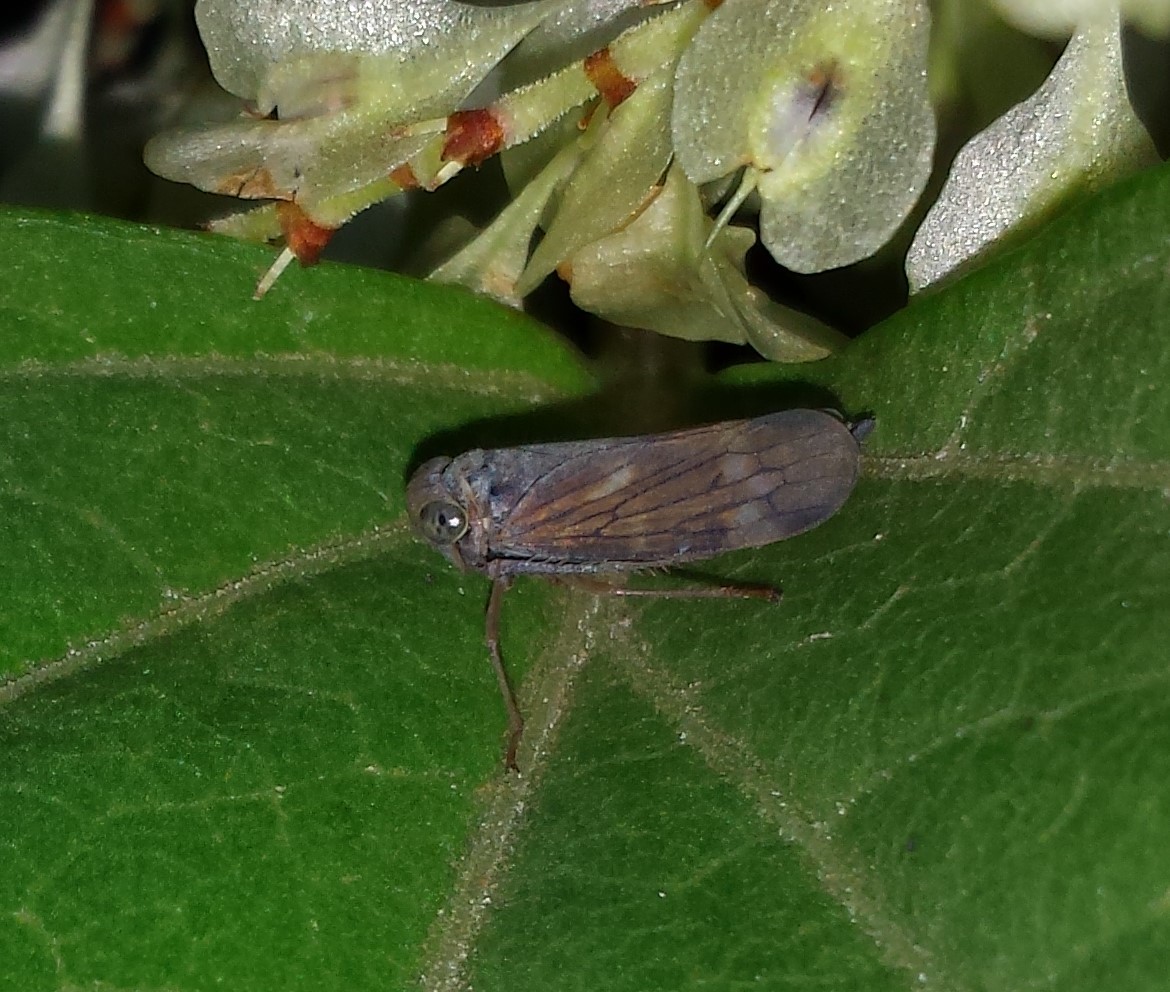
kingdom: Animalia
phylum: Arthropoda
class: Insecta
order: Hemiptera
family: Cicadellidae
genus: Jikradia
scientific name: Jikradia olitoria
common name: Coppery leafhopper
